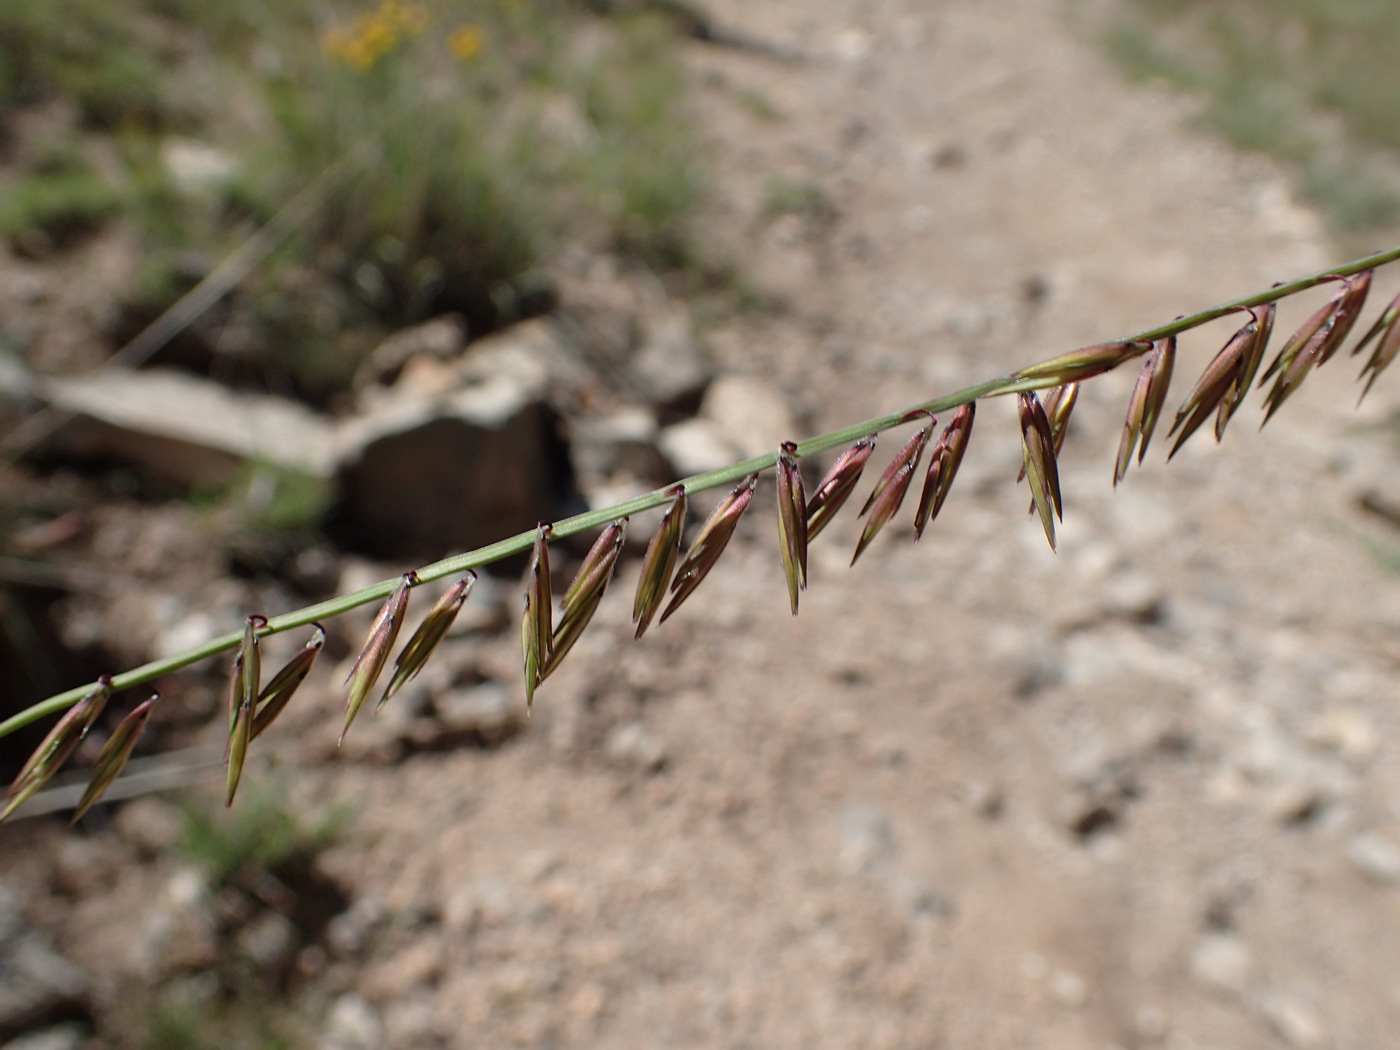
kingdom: Plantae
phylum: Tracheophyta
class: Liliopsida
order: Poales
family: Poaceae
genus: Bouteloua
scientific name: Bouteloua curtipendula
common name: Side-oats grama
